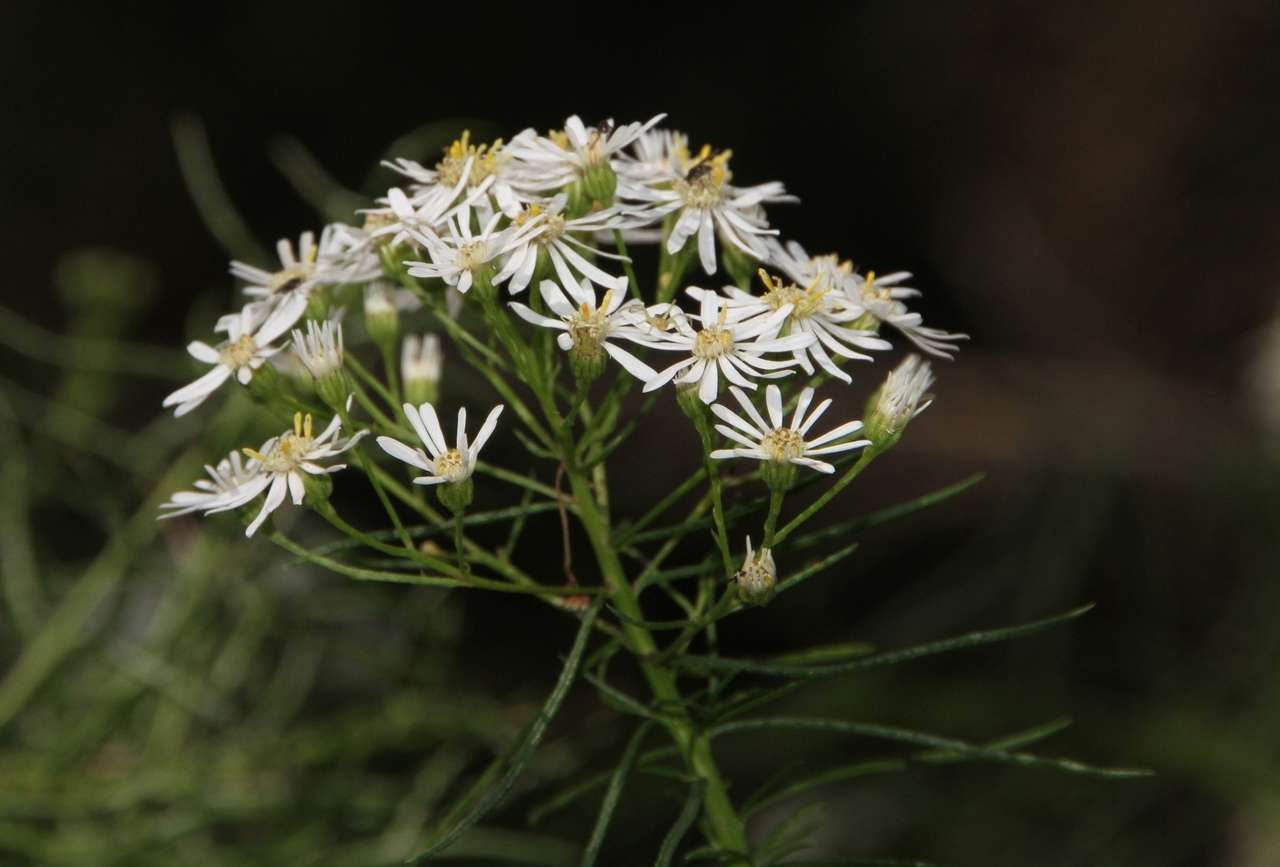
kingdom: Plantae
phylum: Tracheophyta
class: Magnoliopsida
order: Asterales
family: Asteraceae
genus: Spongotrichum
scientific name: Spongotrichum glandulosum
